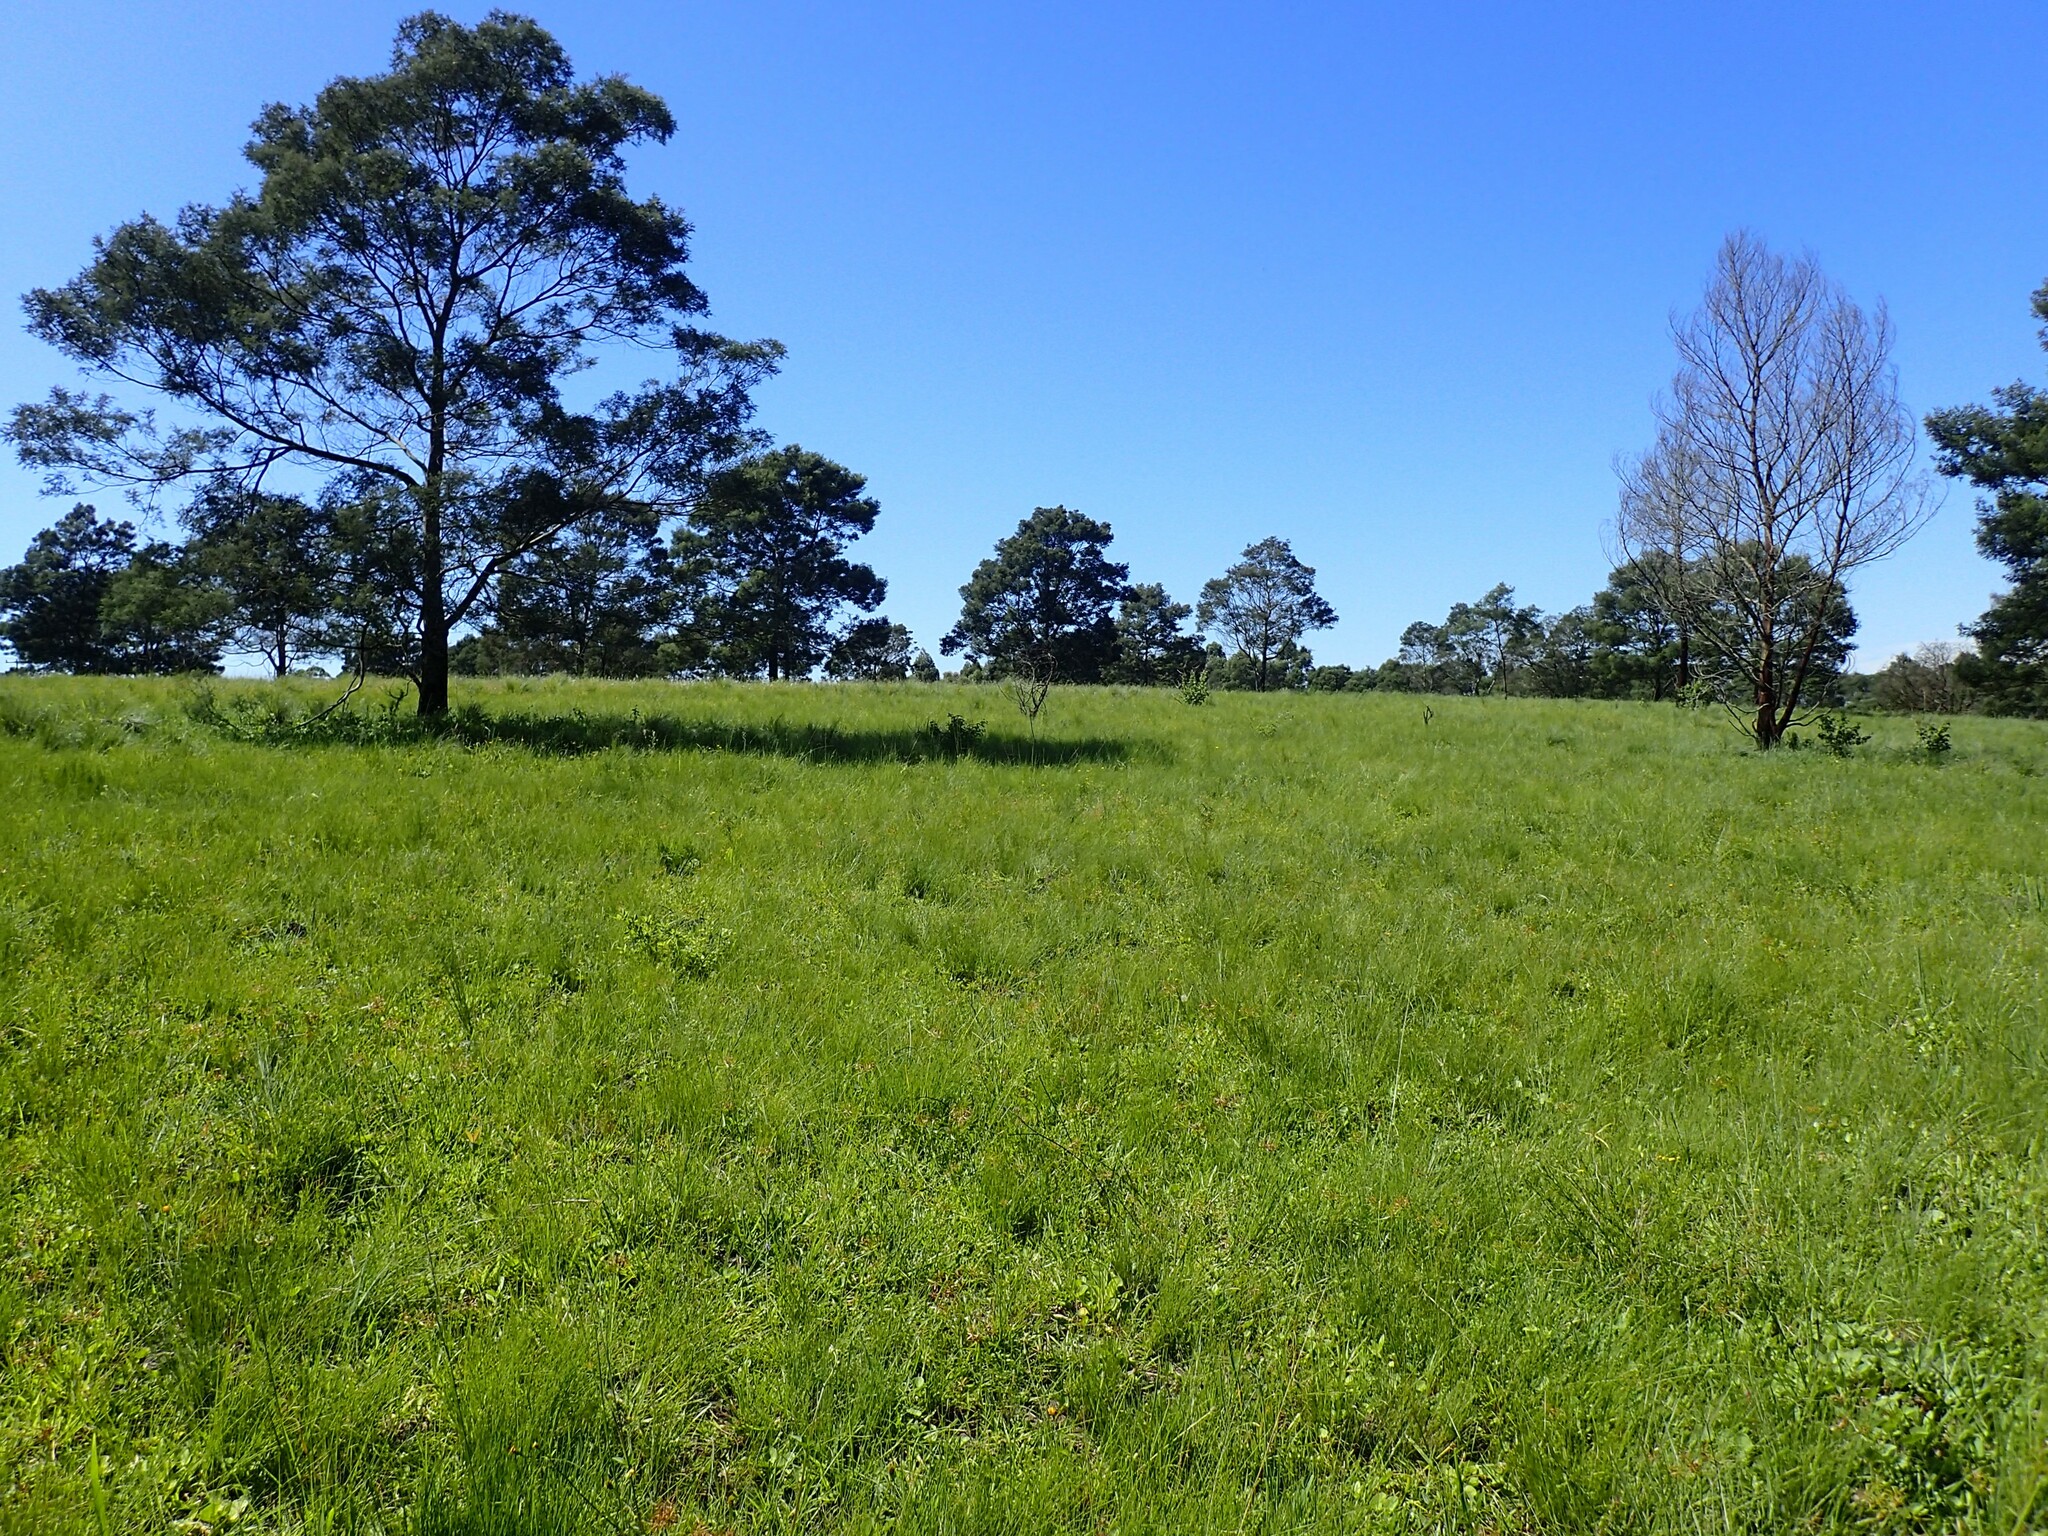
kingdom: Plantae
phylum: Tracheophyta
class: Magnoliopsida
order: Fabales
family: Fabaceae
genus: Acacia
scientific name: Acacia mearnsii
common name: Black wattle
